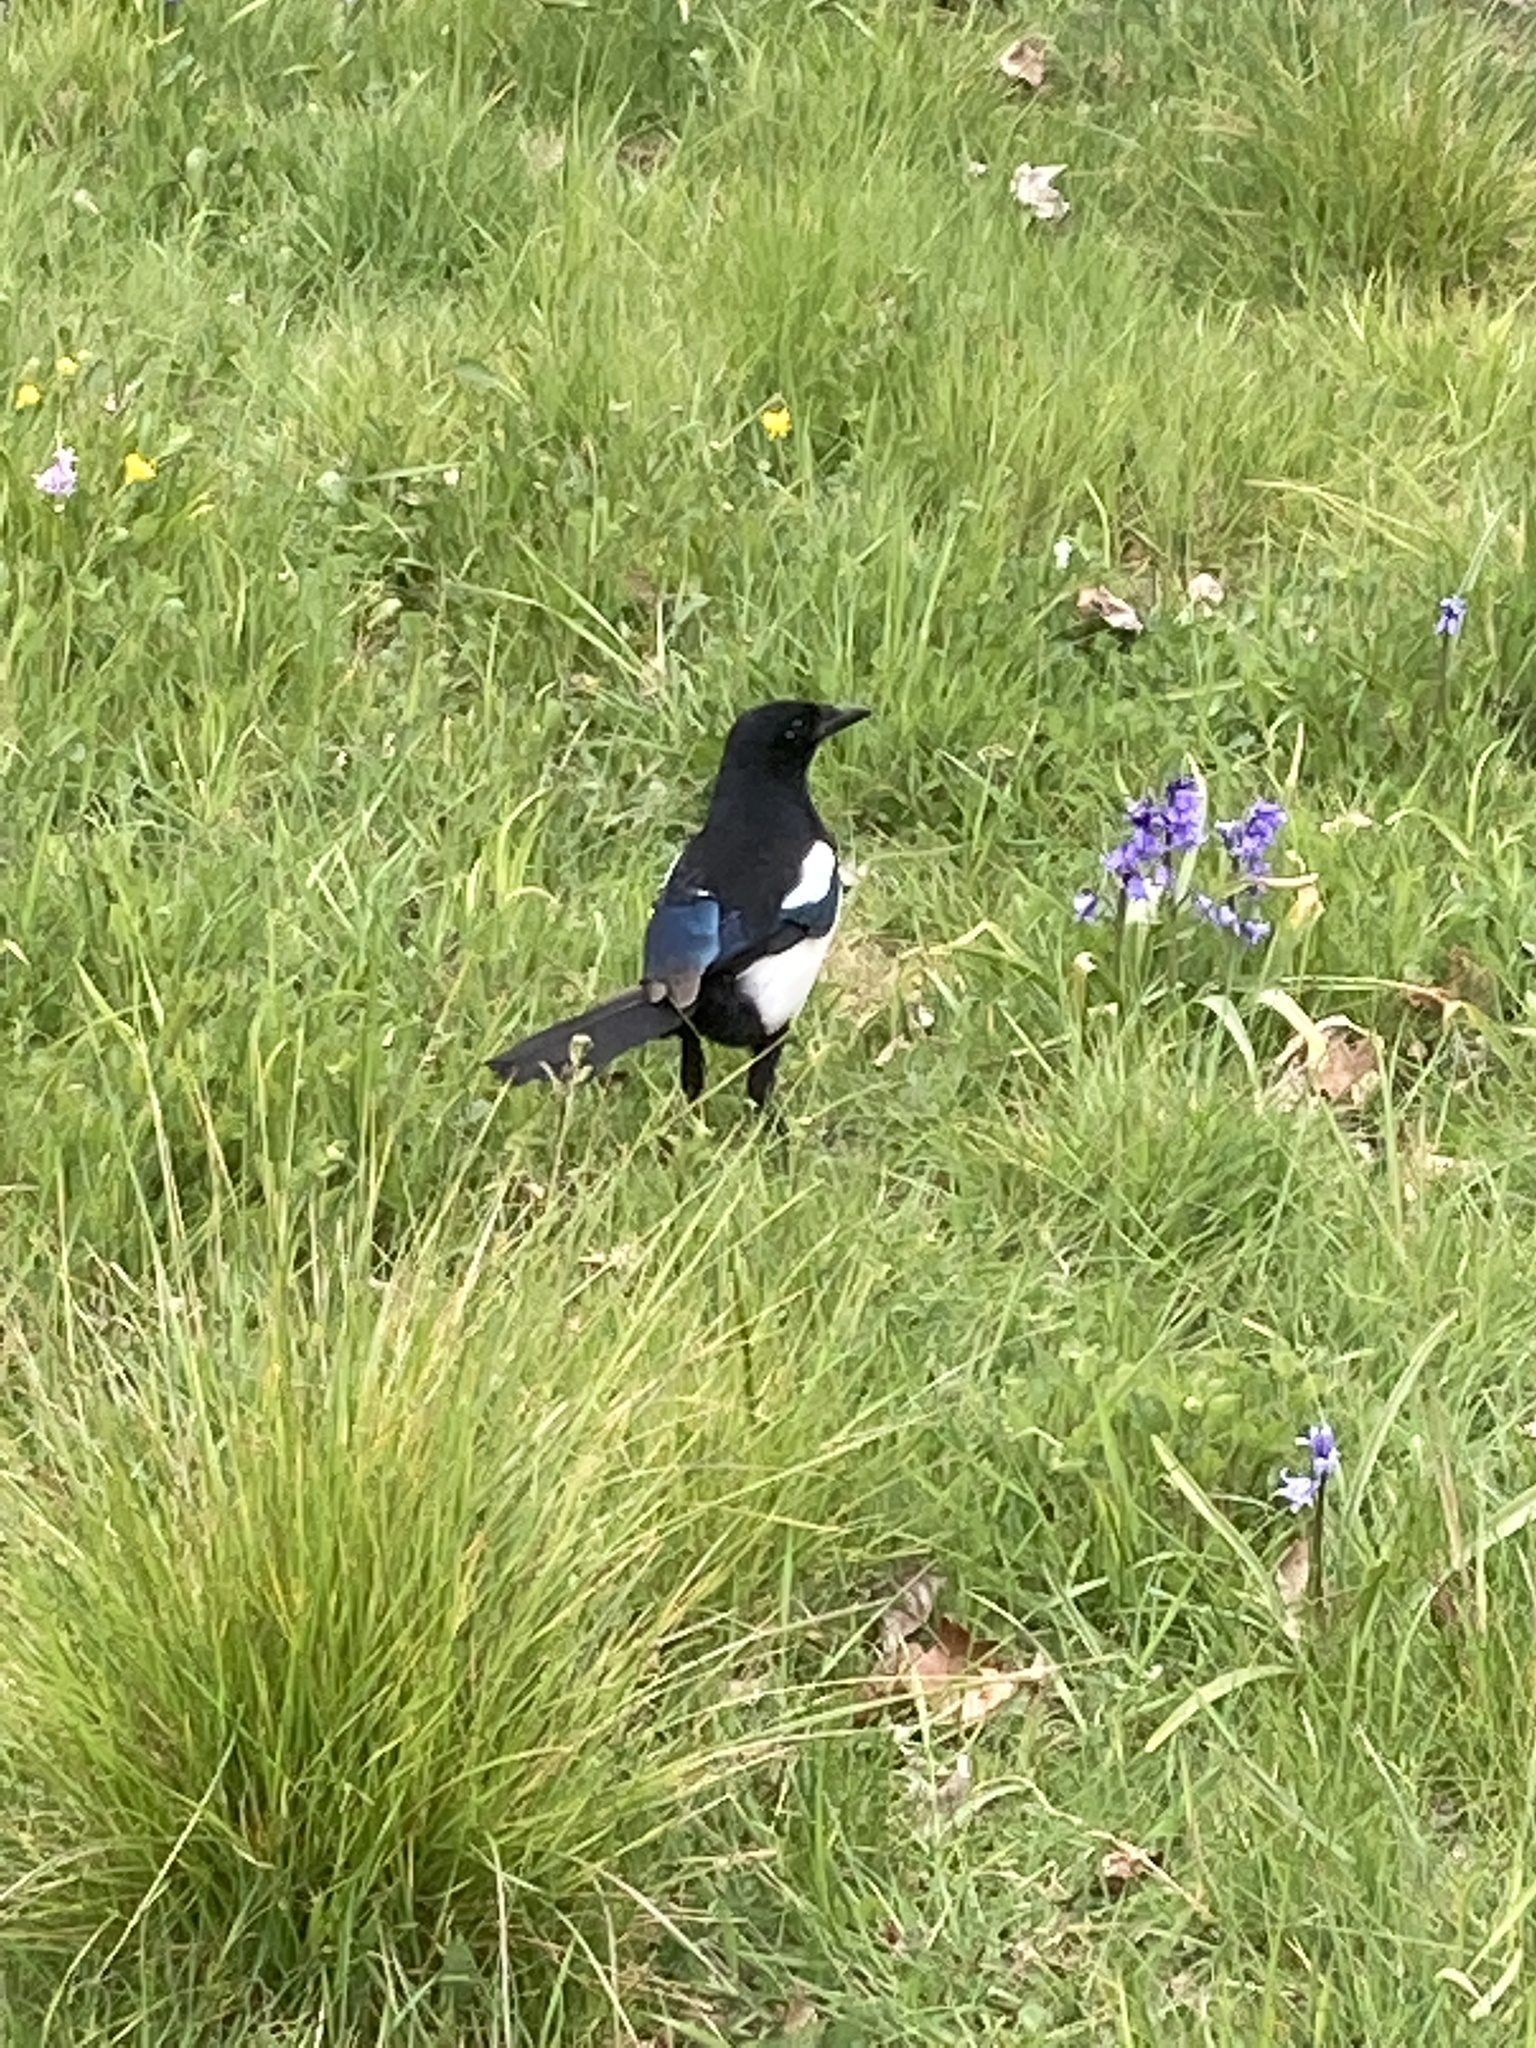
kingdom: Animalia
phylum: Chordata
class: Aves
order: Passeriformes
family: Corvidae
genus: Pica
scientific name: Pica pica
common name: Eurasian magpie
